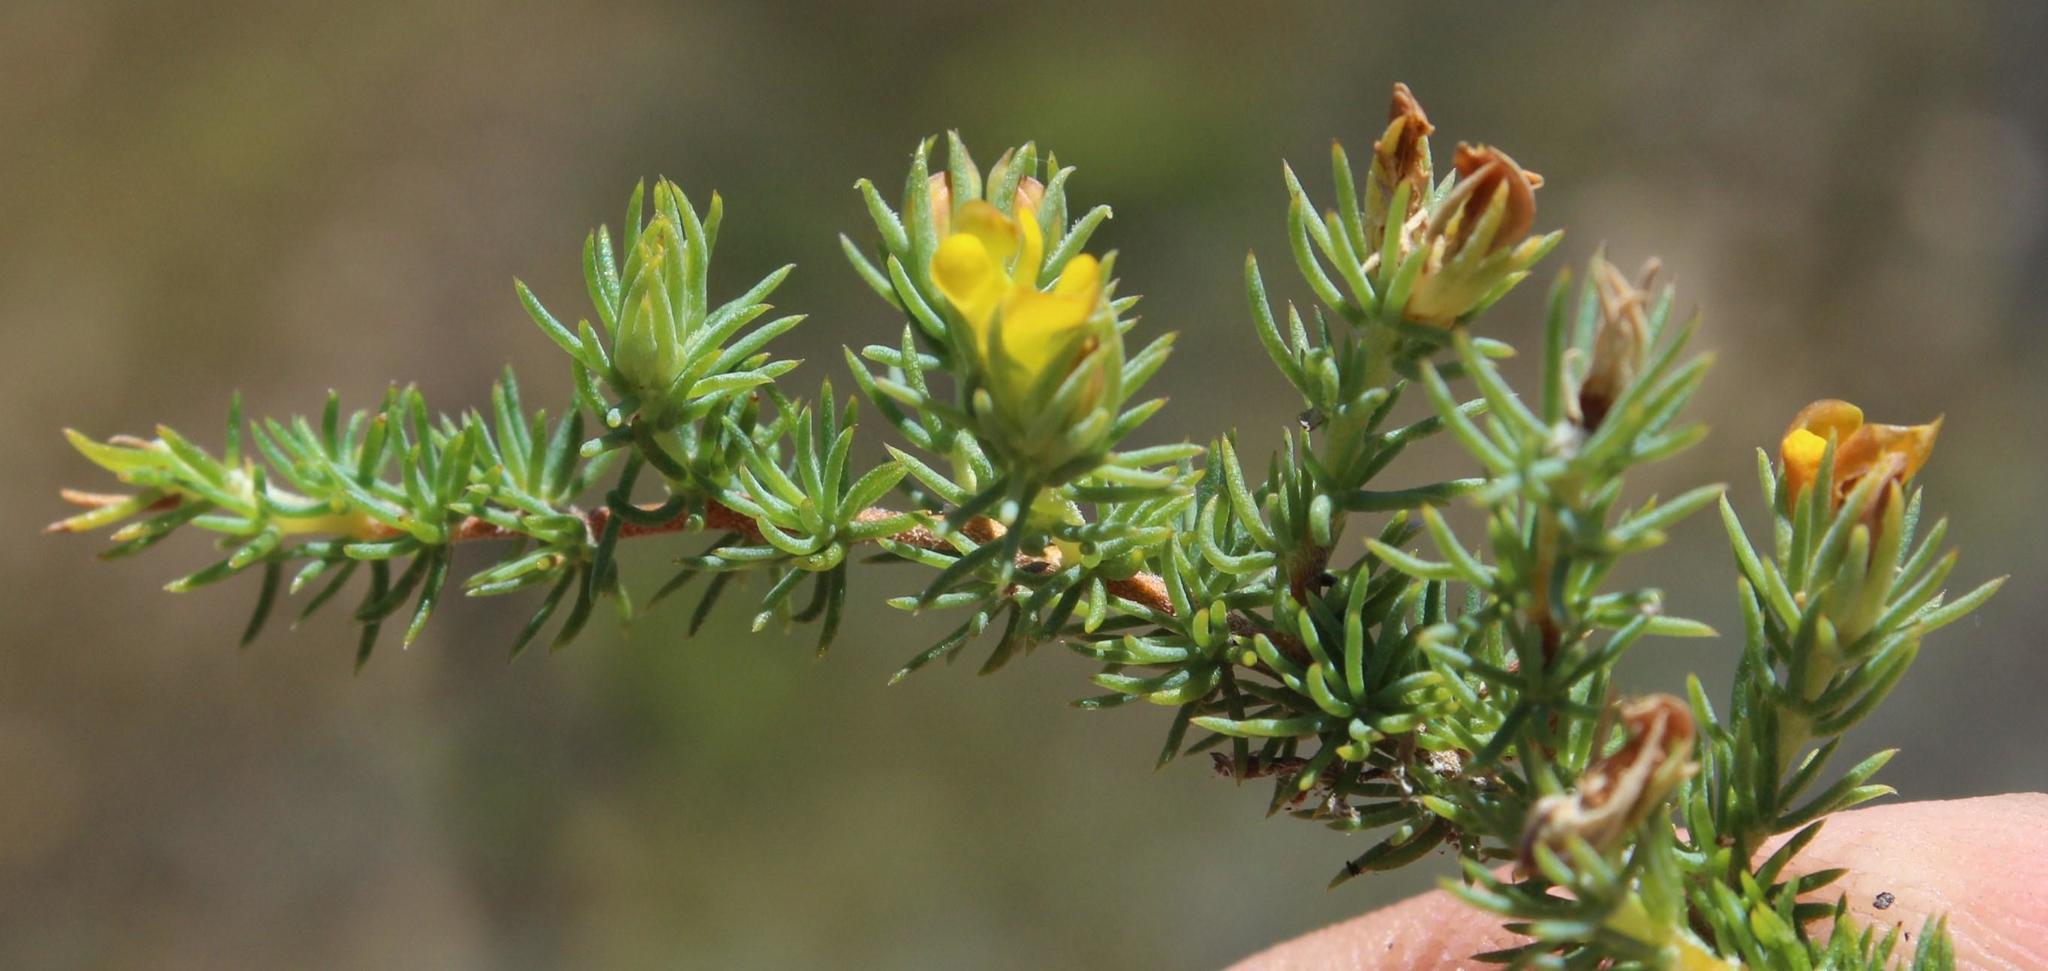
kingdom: Plantae
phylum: Tracheophyta
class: Magnoliopsida
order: Fabales
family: Fabaceae
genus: Aspalathus
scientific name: Aspalathus juniperina
